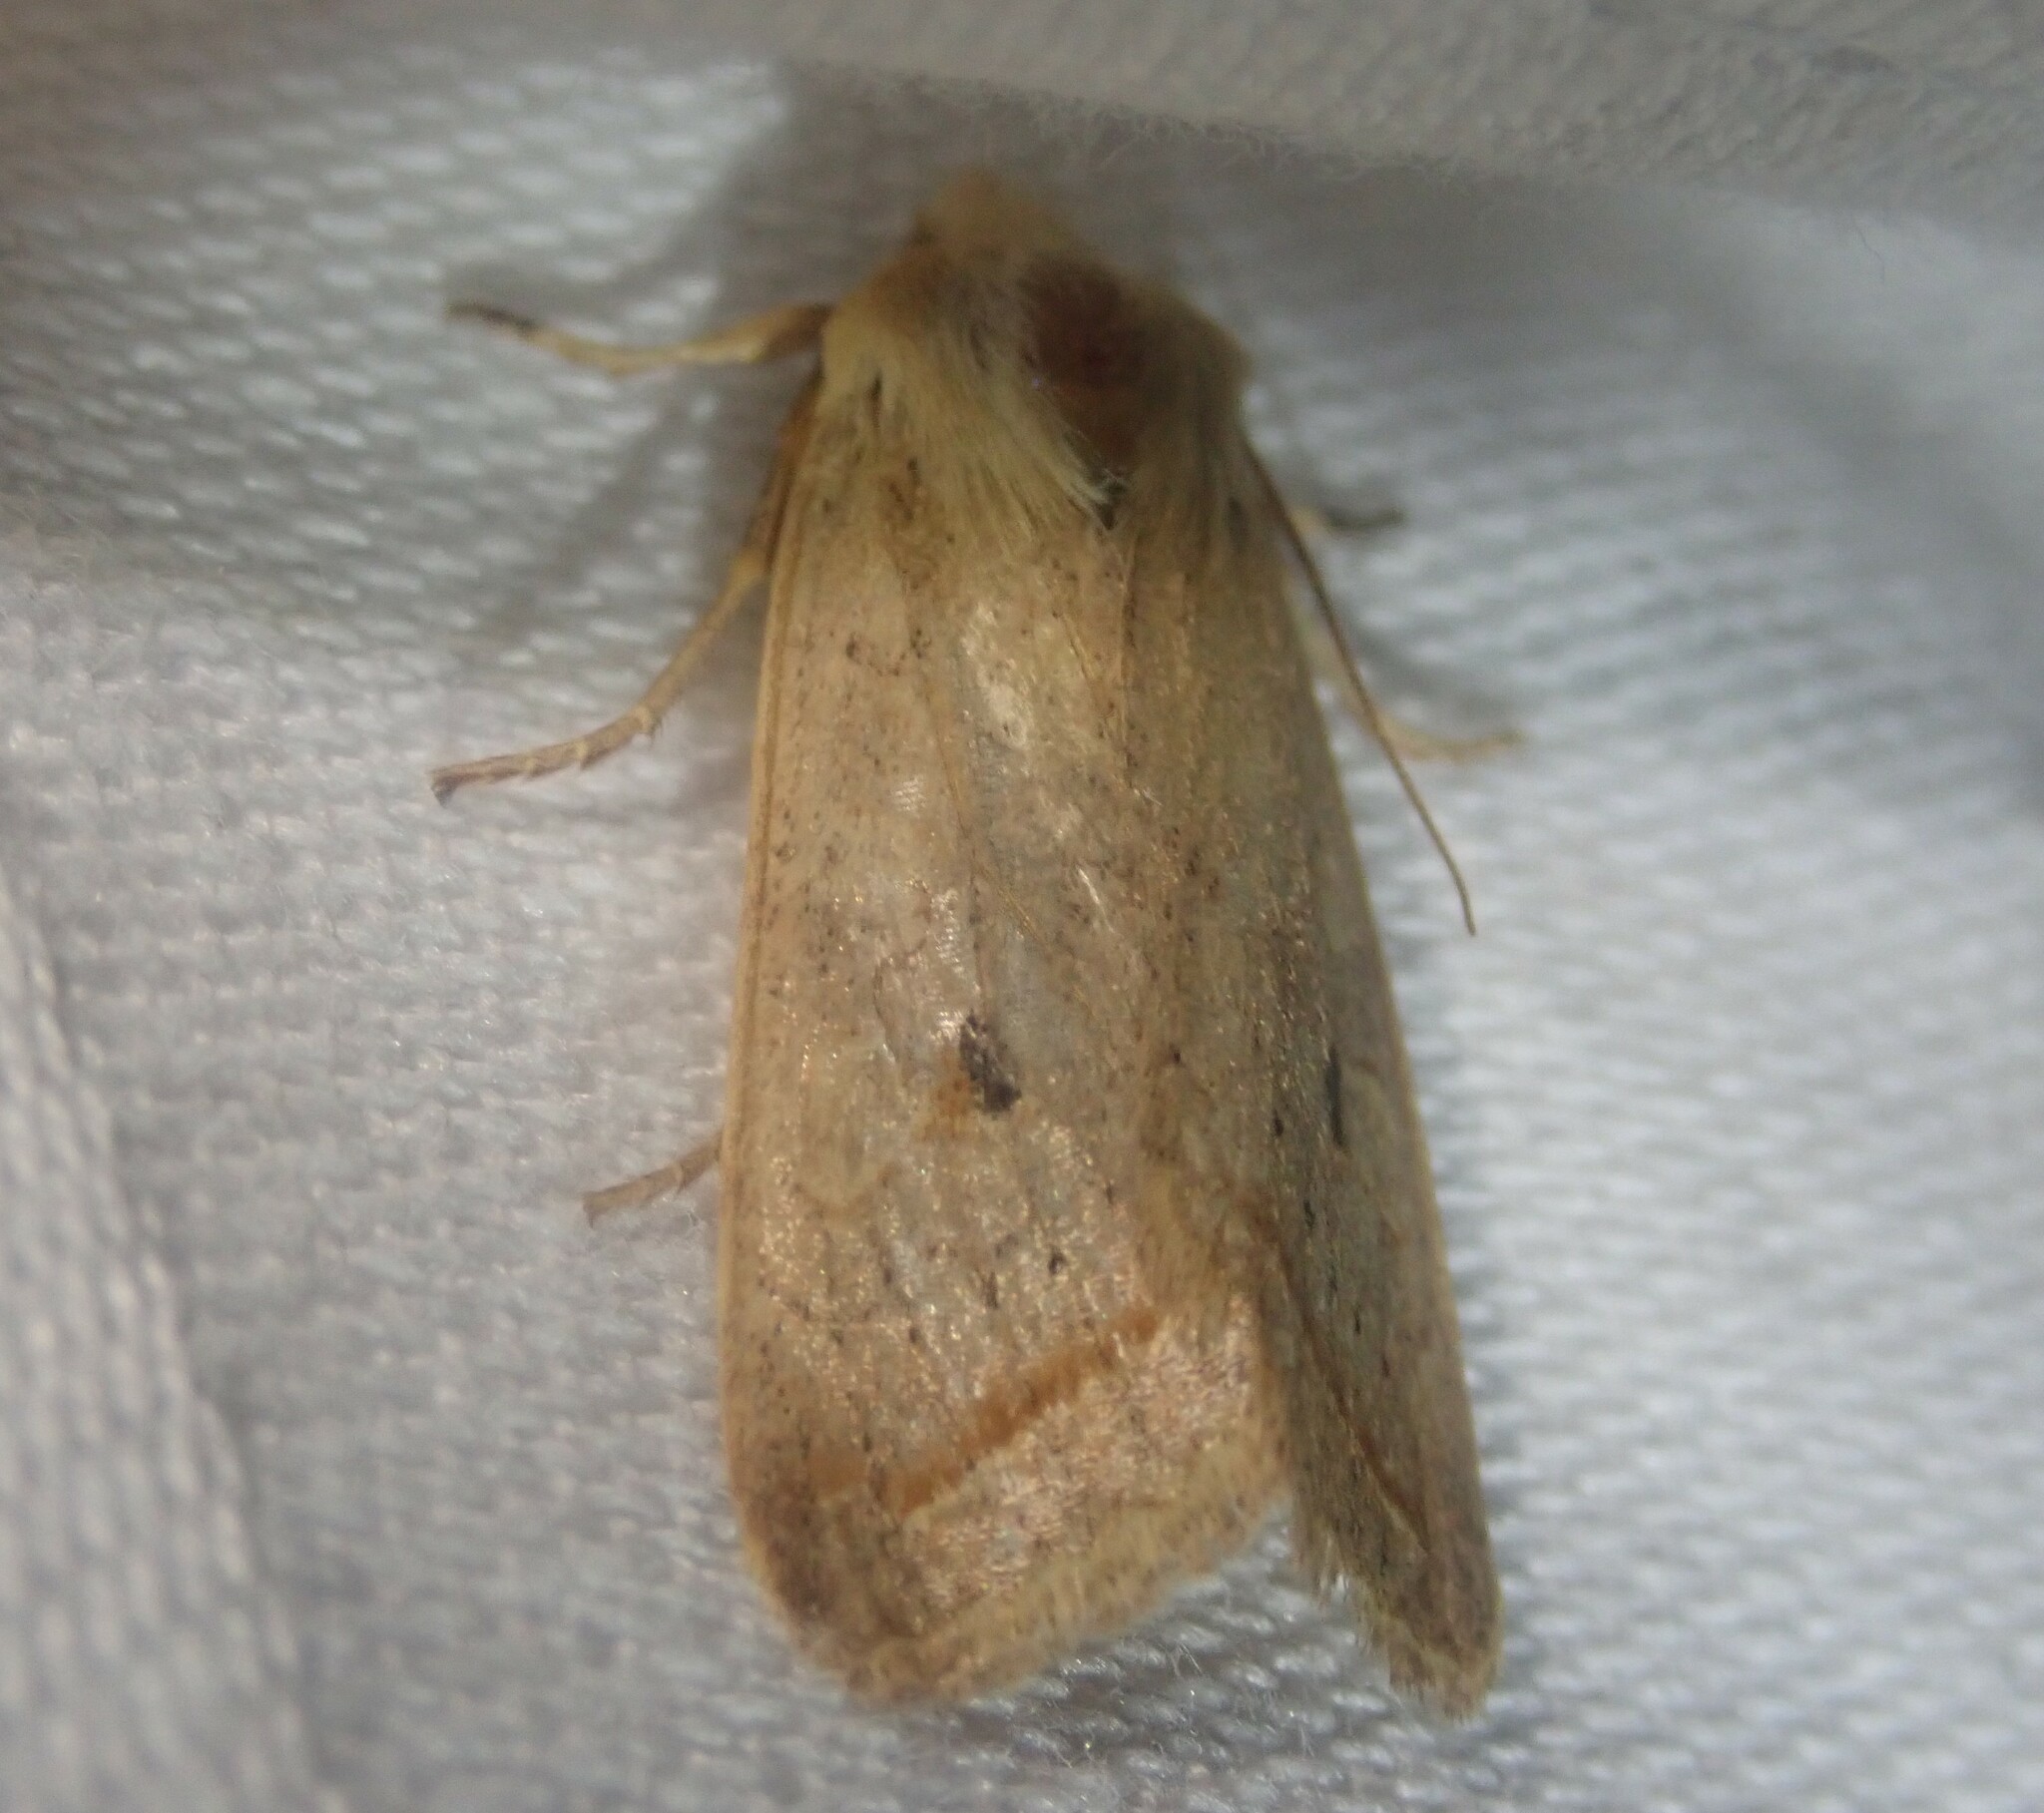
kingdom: Animalia
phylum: Arthropoda
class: Insecta
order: Lepidoptera
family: Noctuidae
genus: Agrochola
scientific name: Agrochola macilenta
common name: Yellow-line quaker
